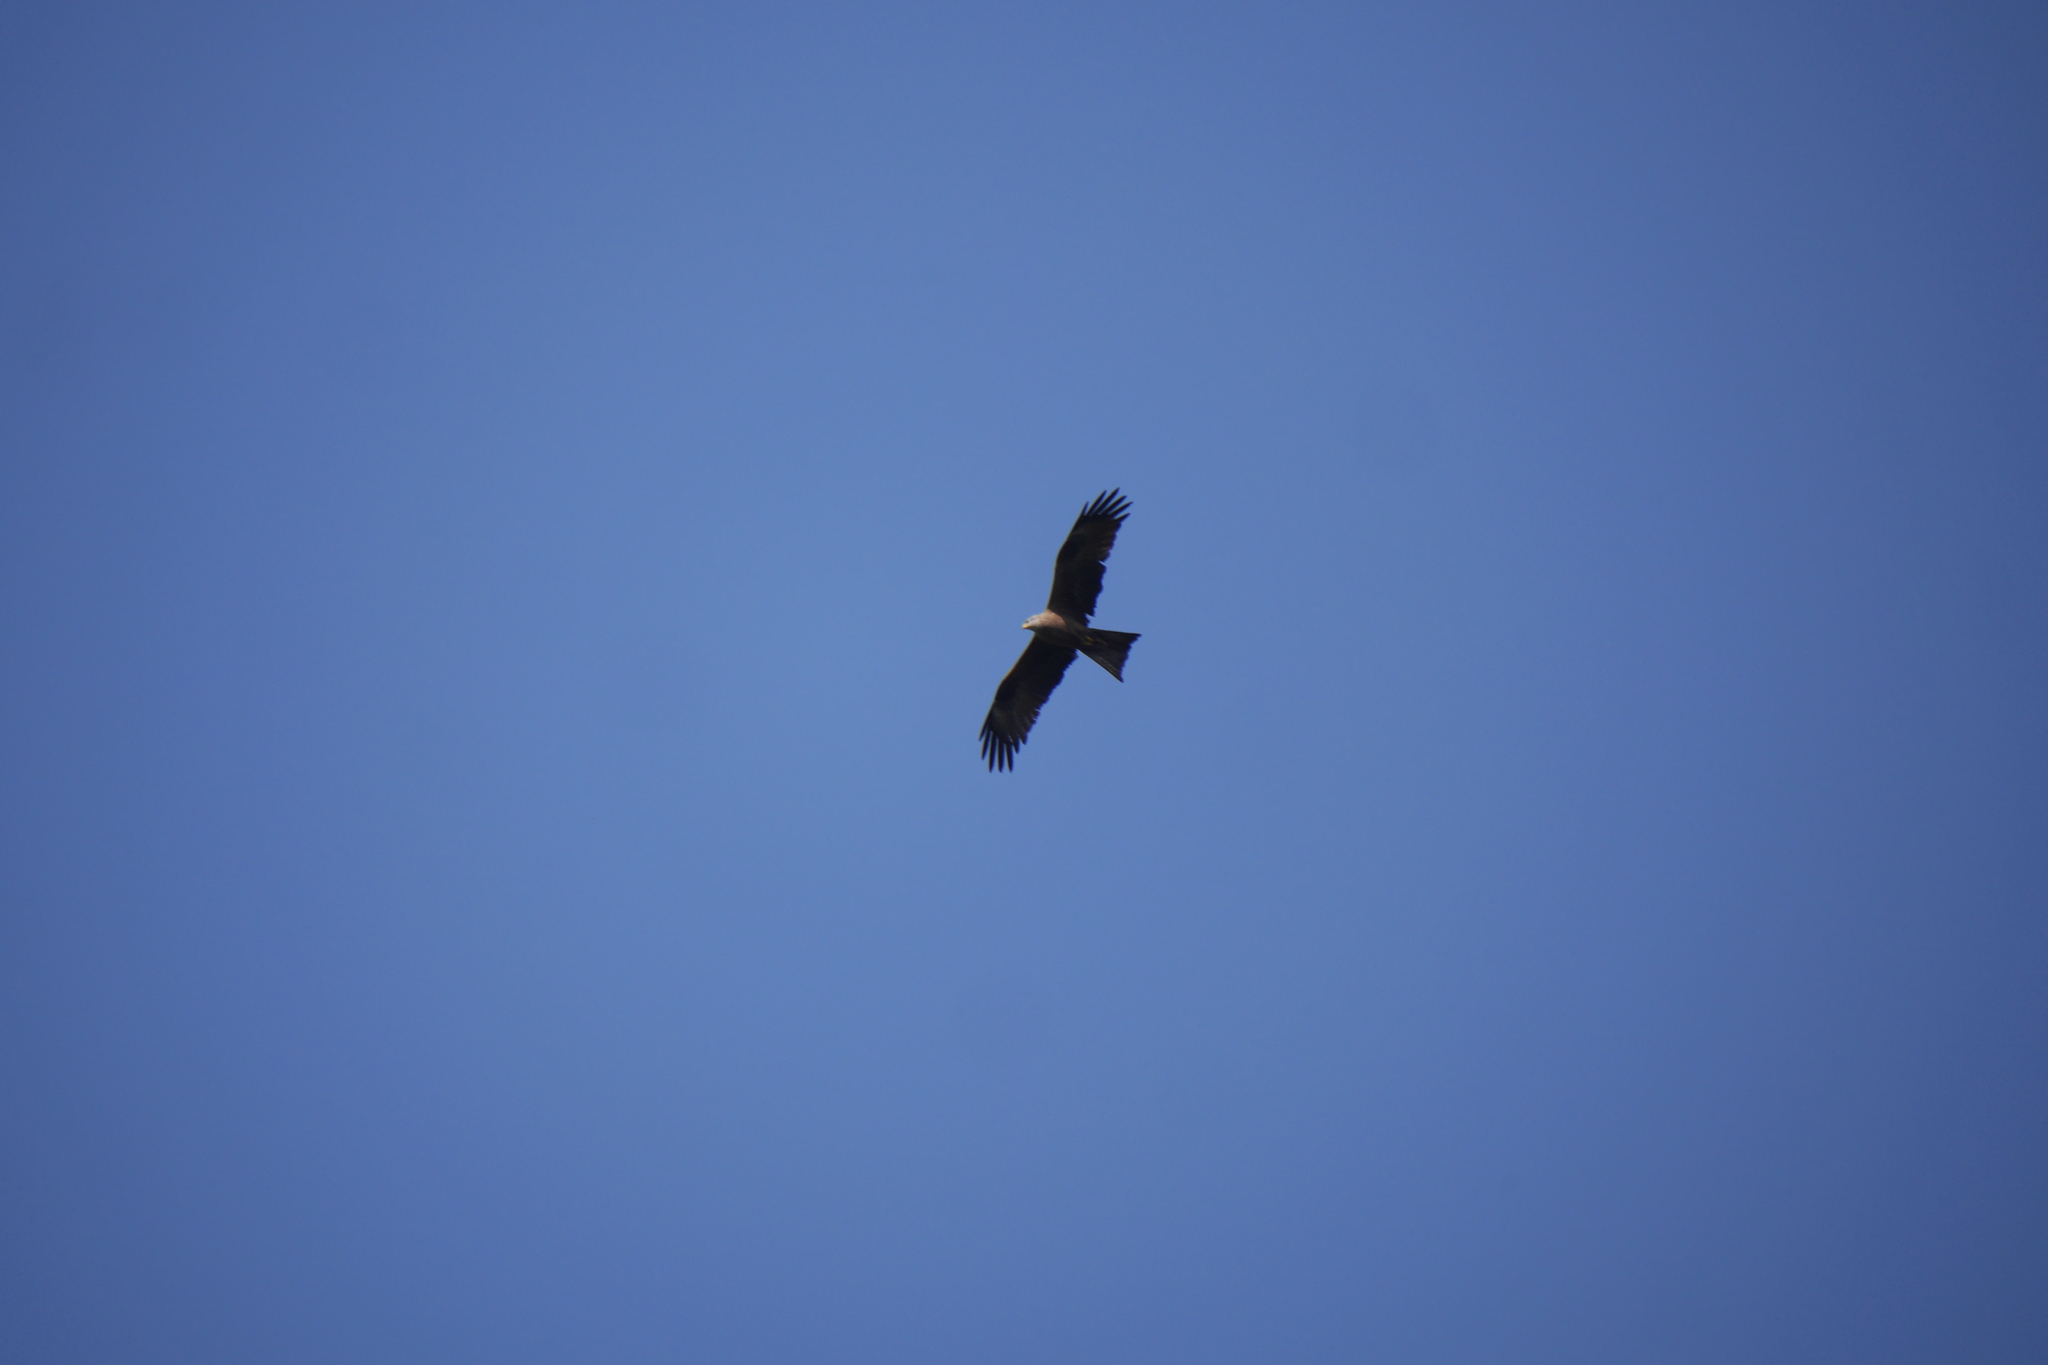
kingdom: Animalia
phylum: Chordata
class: Aves
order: Accipitriformes
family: Accipitridae
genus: Milvus
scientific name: Milvus migrans
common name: Black kite
